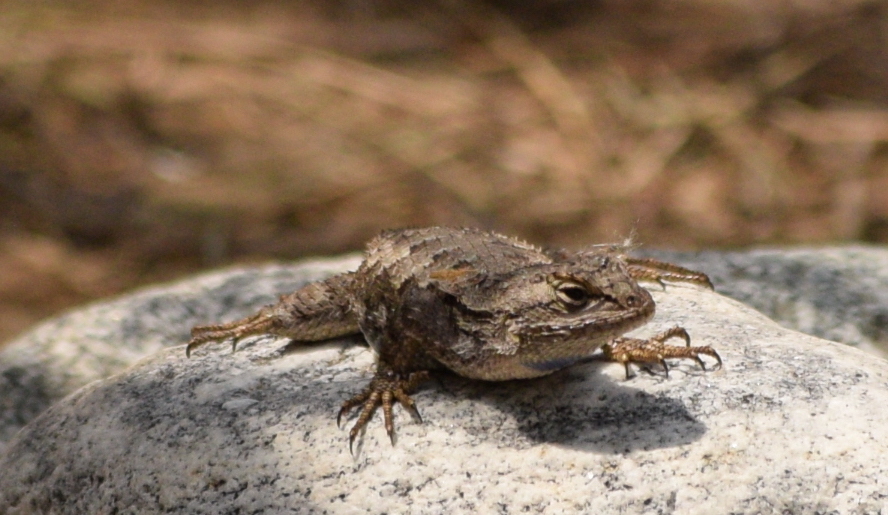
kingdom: Animalia
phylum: Chordata
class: Squamata
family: Phrynosomatidae
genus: Sceloporus
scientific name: Sceloporus occidentalis
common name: Western fence lizard
